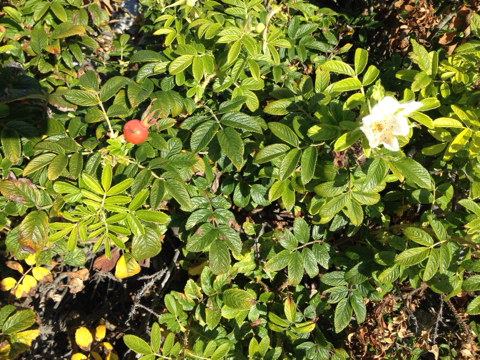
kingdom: Plantae
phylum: Tracheophyta
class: Magnoliopsida
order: Rosales
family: Rosaceae
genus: Rosa
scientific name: Rosa rugosa
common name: Japanese rose
